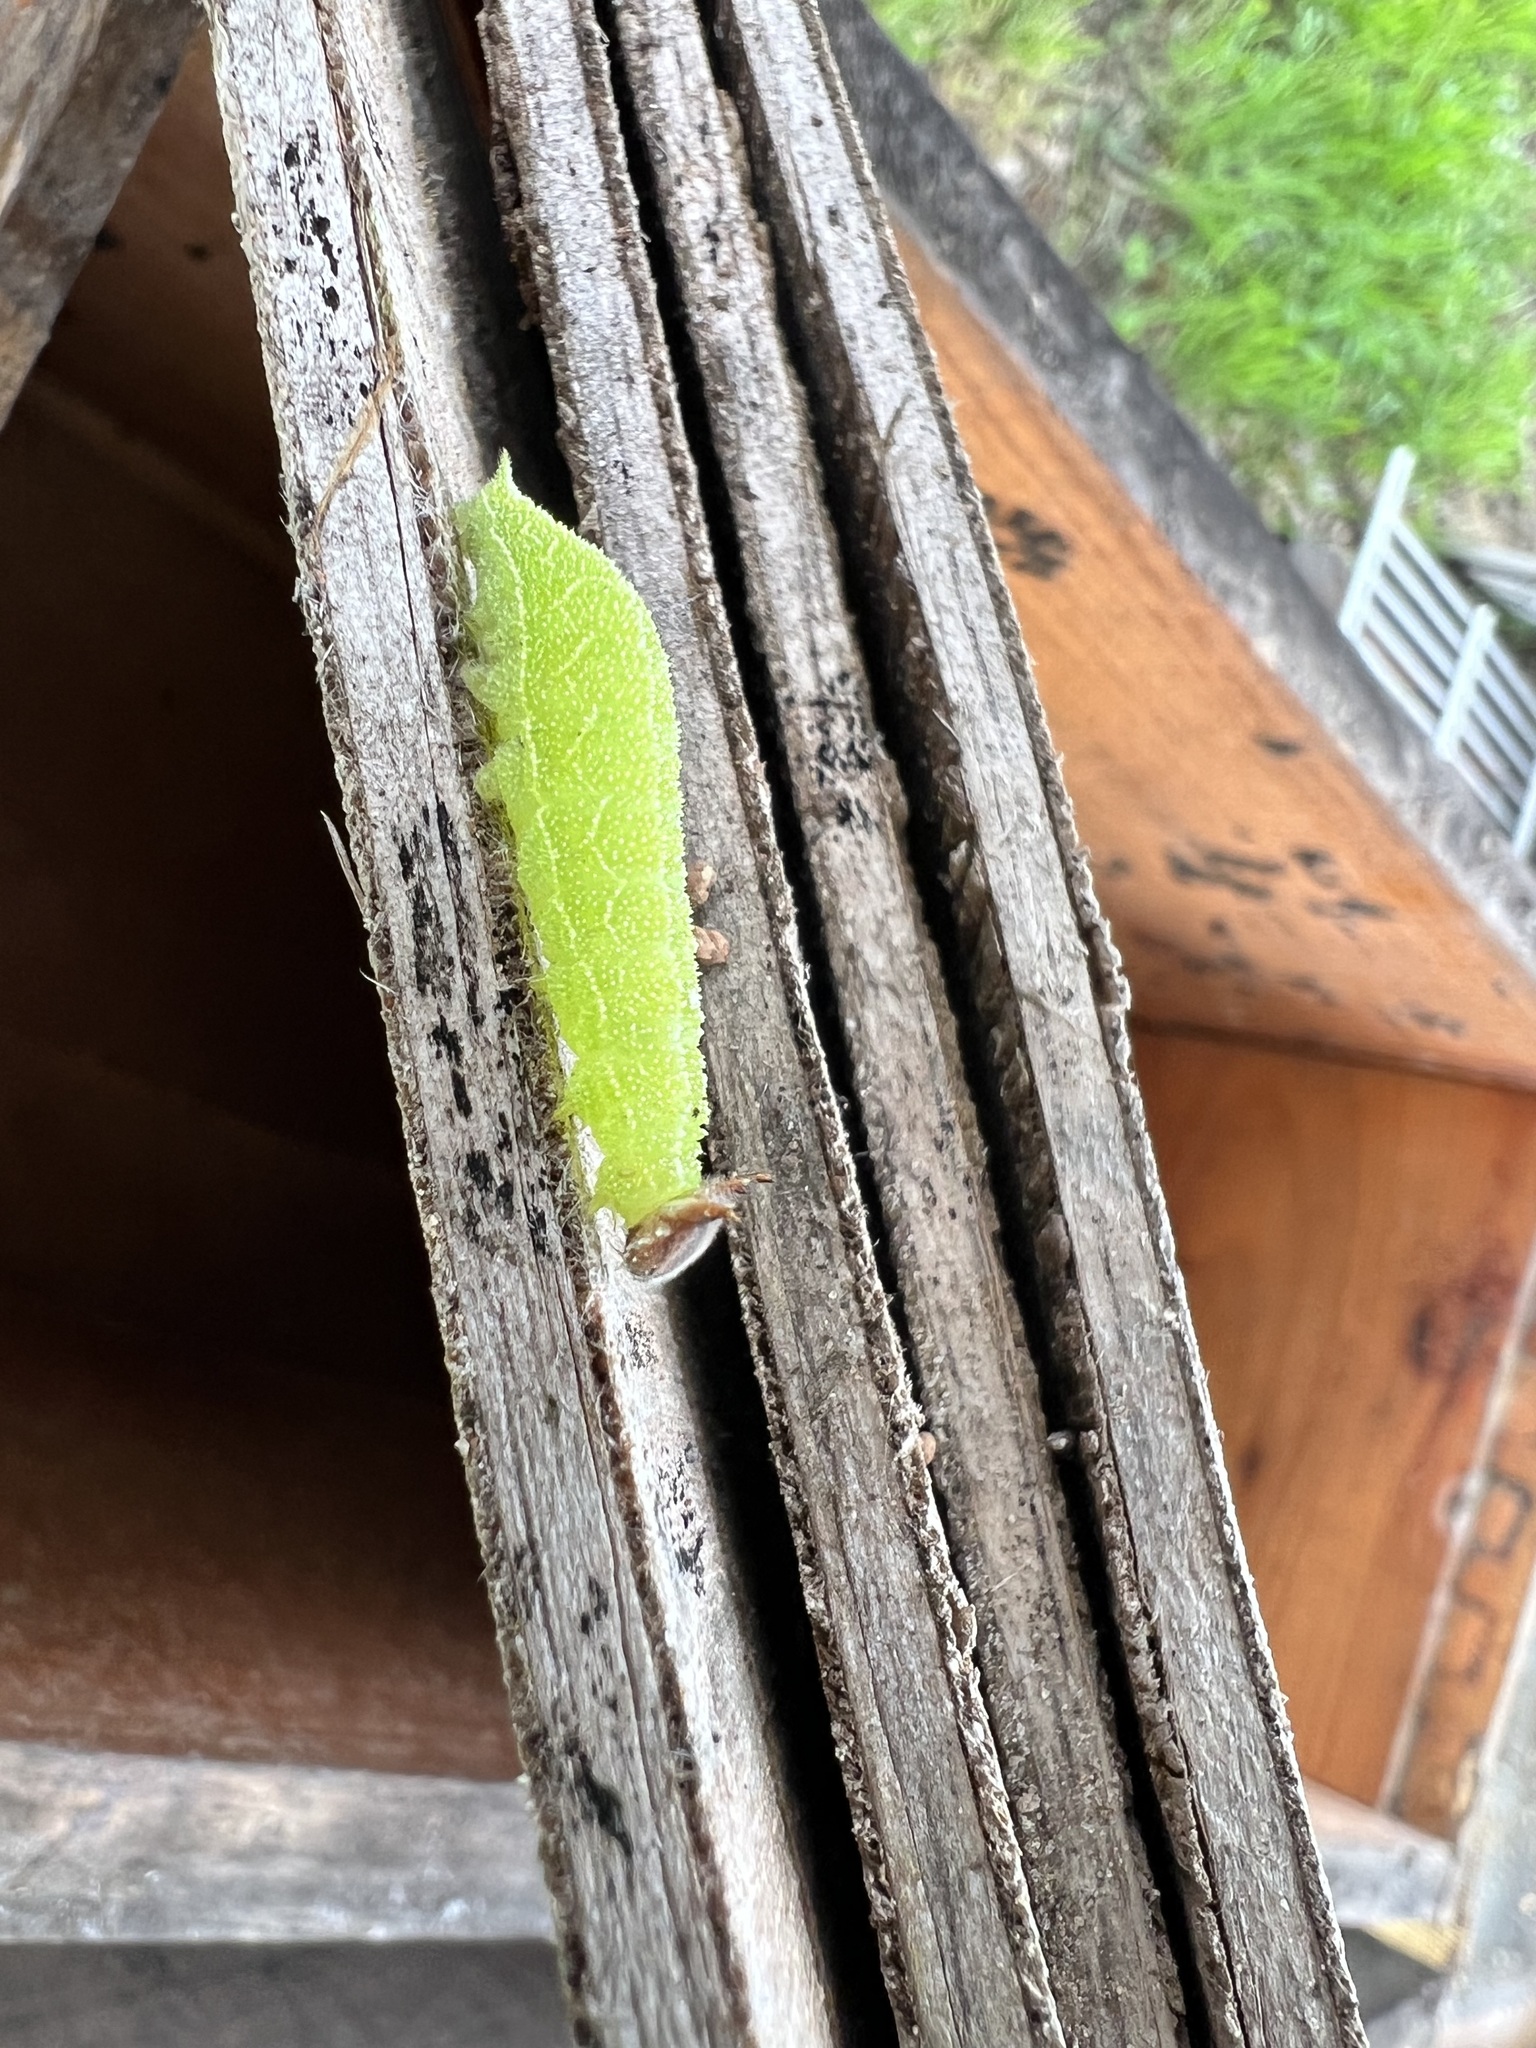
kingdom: Animalia
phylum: Arthropoda
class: Insecta
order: Lepidoptera
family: Nymphalidae
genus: Asterocampa
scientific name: Asterocampa celtis
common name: Hackberry emperor
